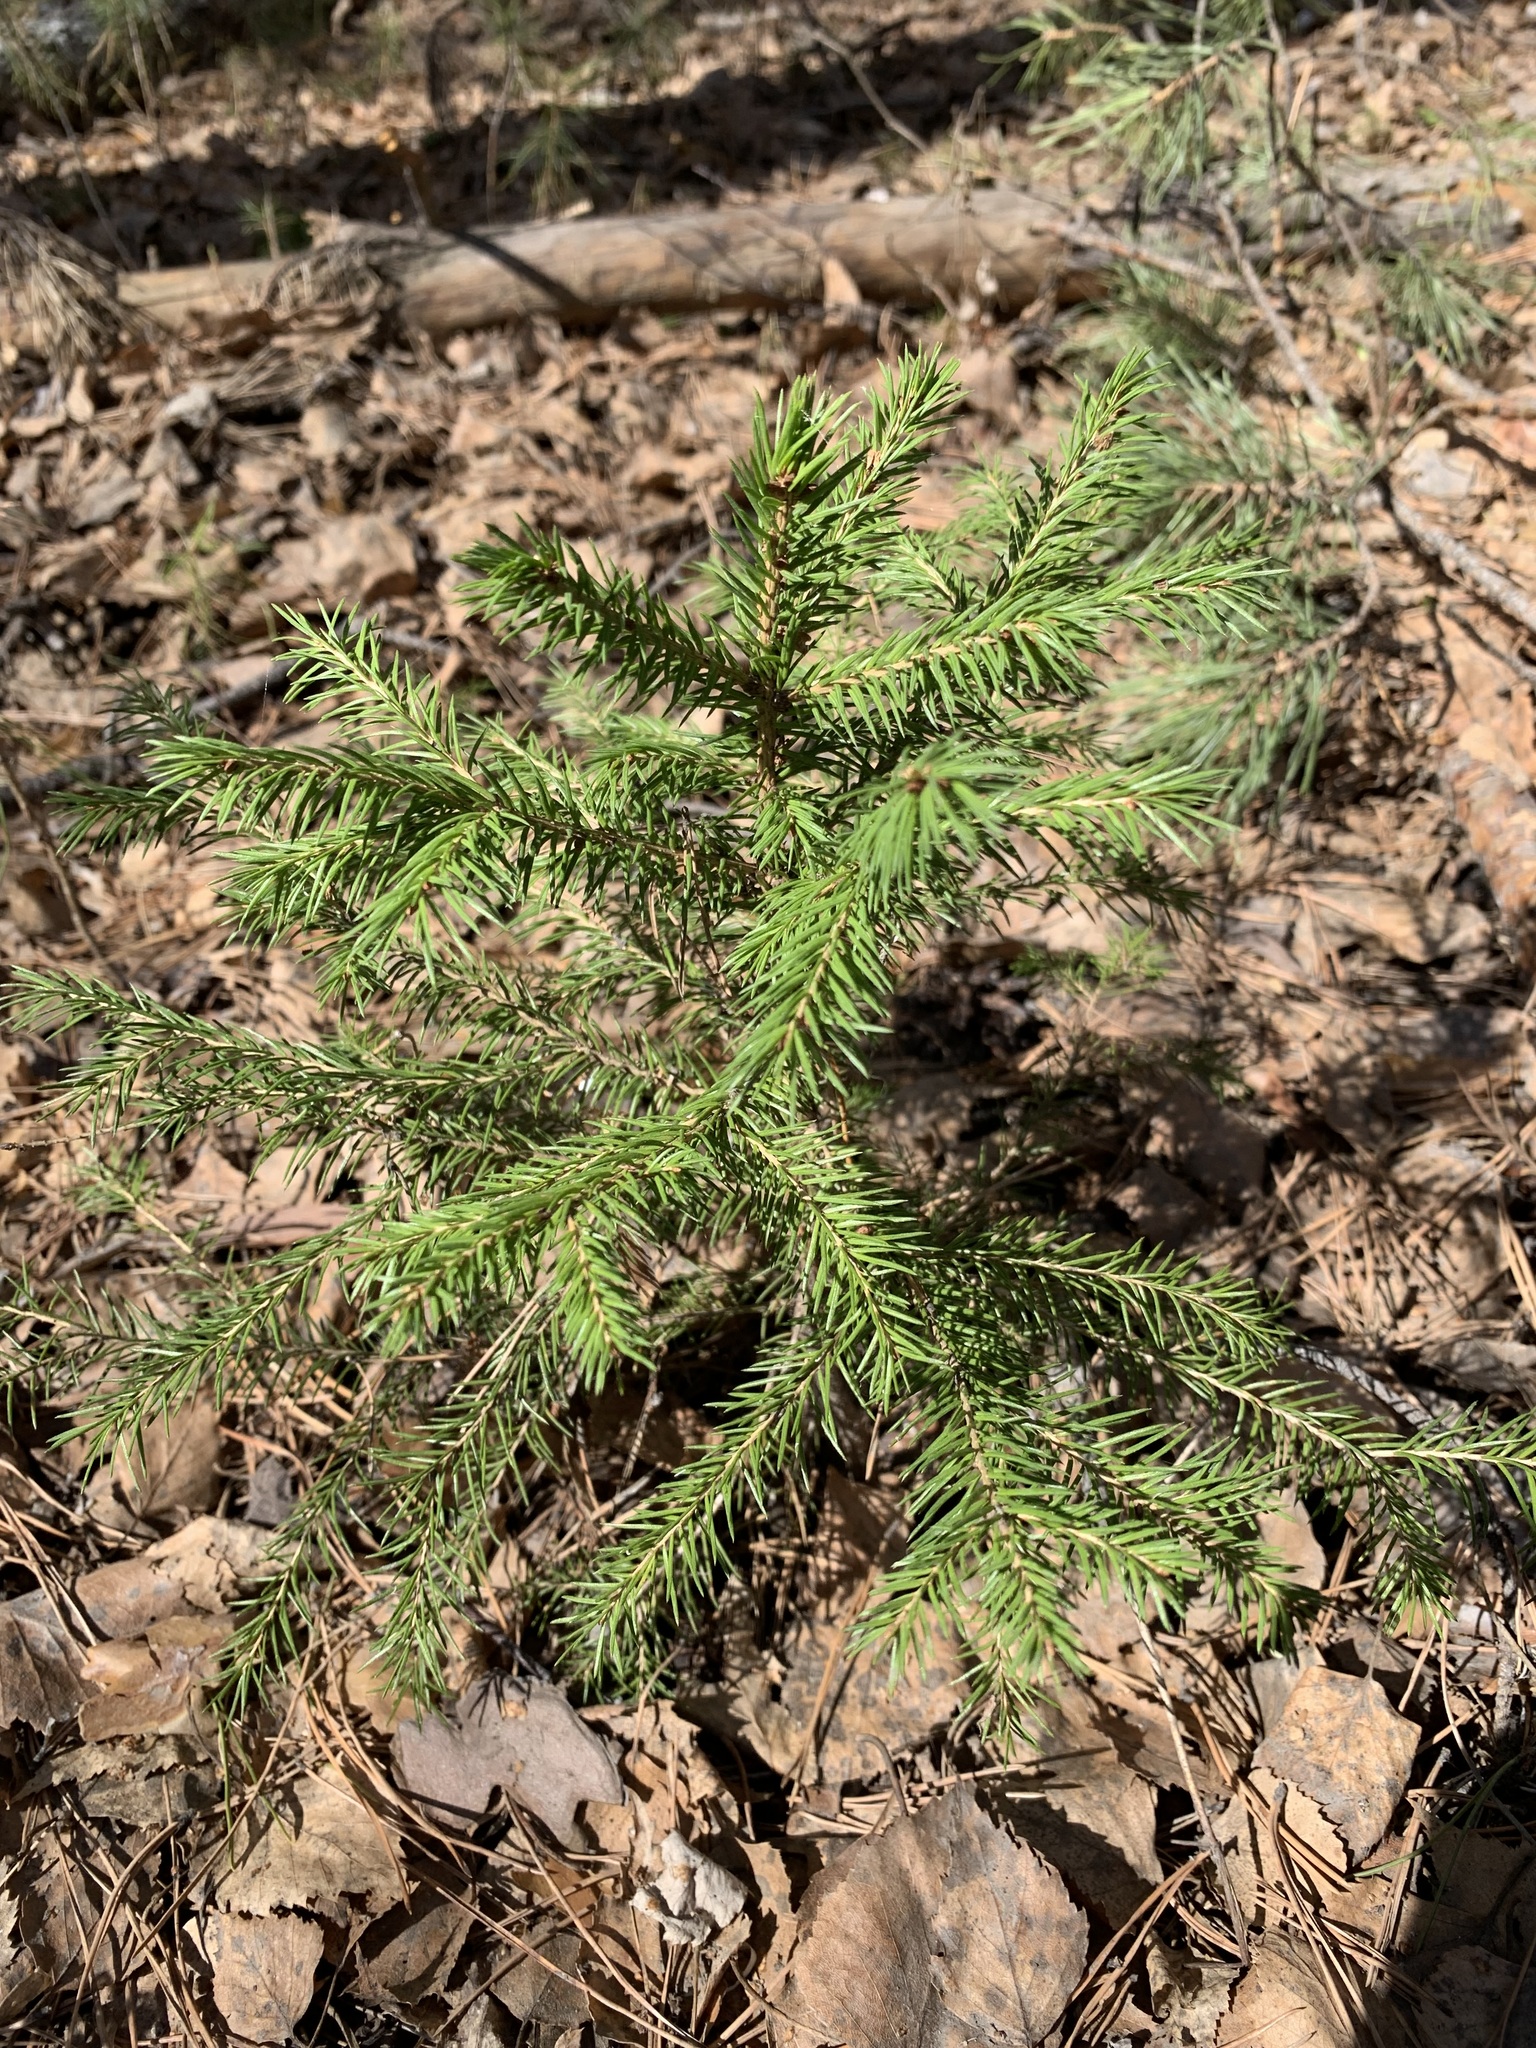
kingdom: Plantae
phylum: Tracheophyta
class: Pinopsida
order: Pinales
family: Pinaceae
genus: Picea
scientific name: Picea obovata
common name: Siberian spruce
